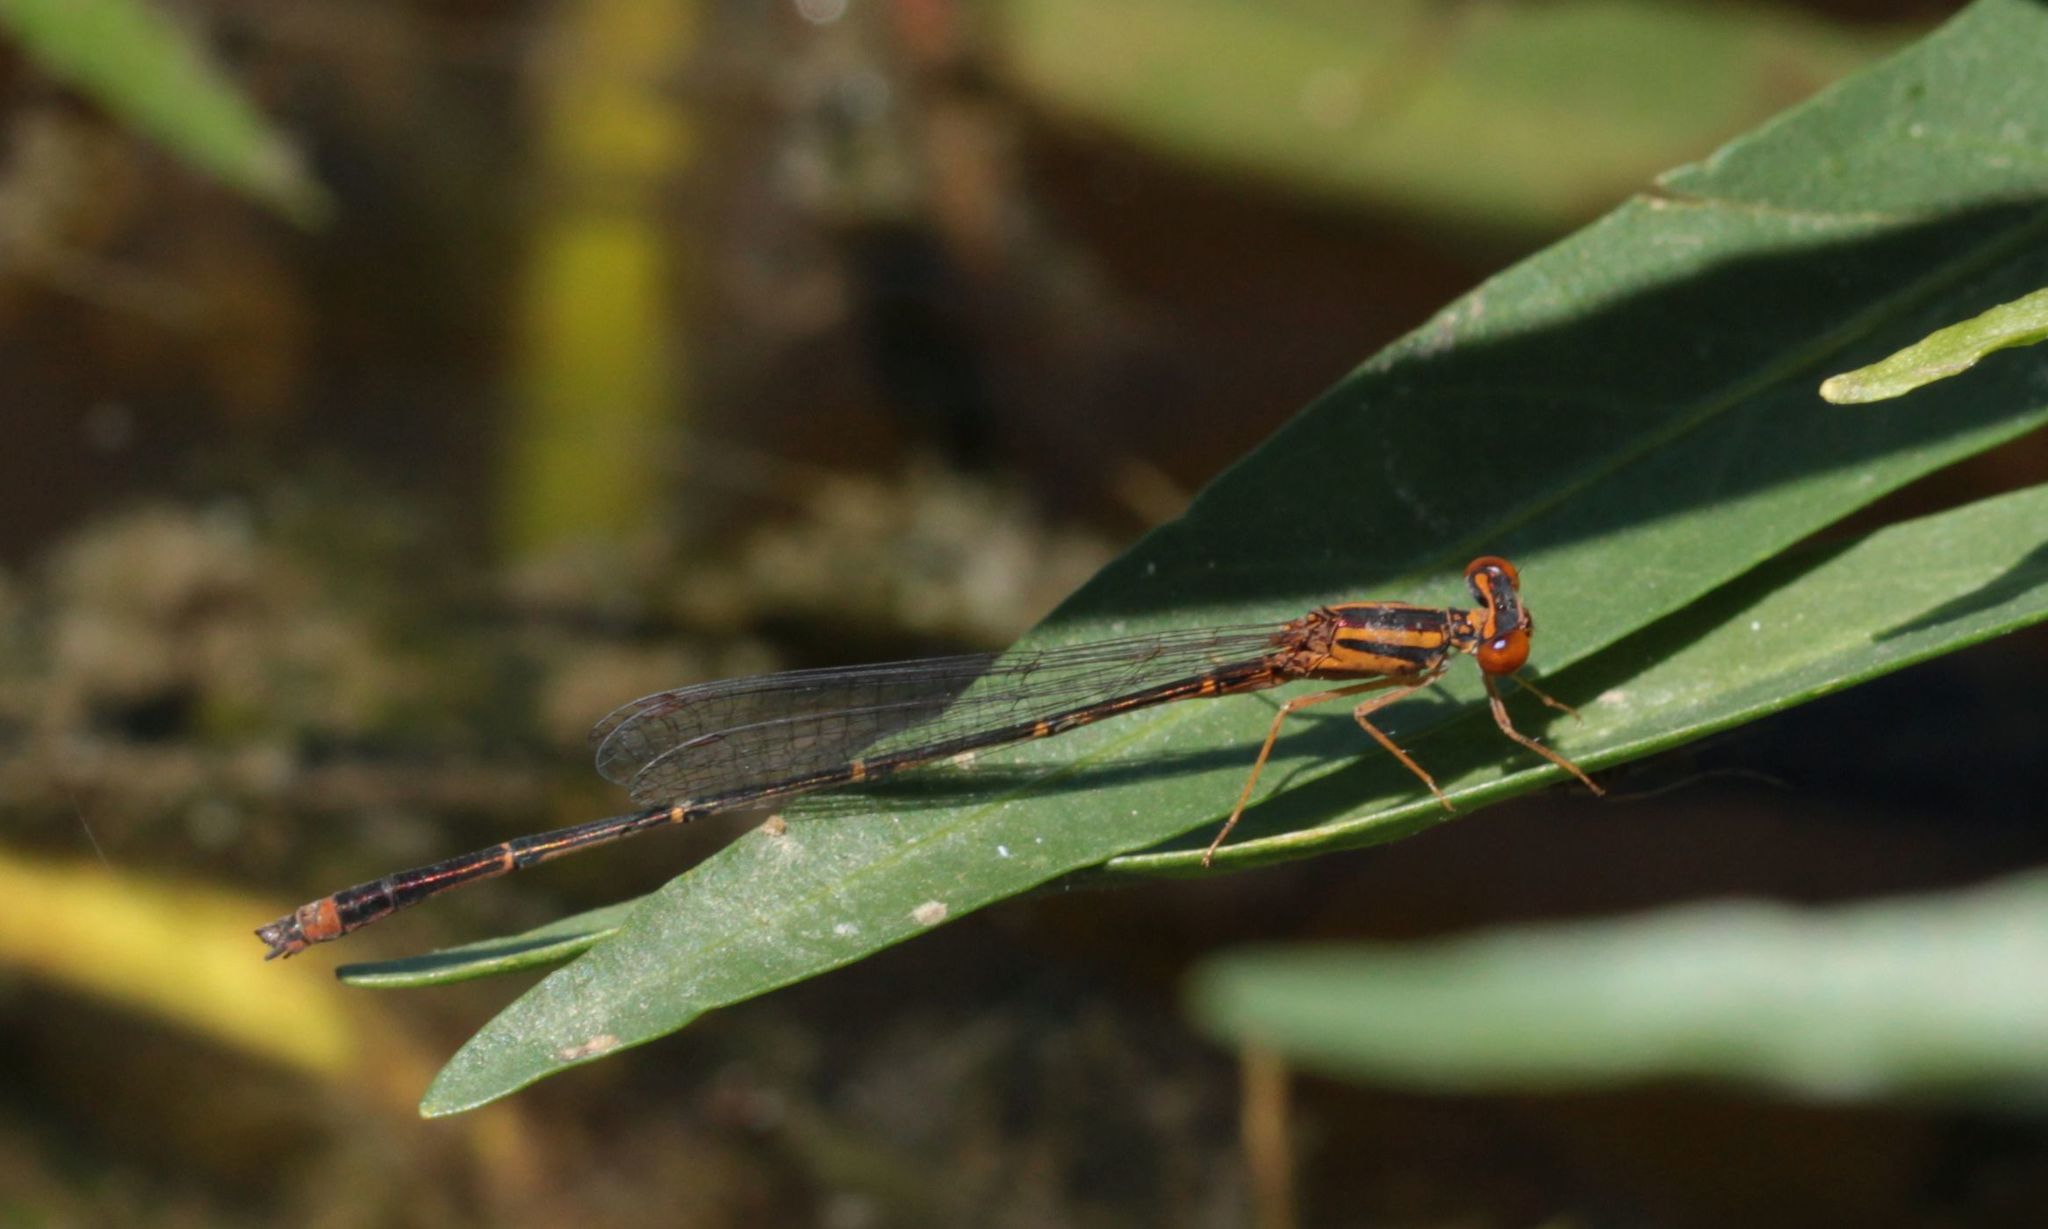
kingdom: Animalia
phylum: Arthropoda
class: Insecta
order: Odonata
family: Coenagrionidae
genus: Enallagma
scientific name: Enallagma signatum
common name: Orange bluet
